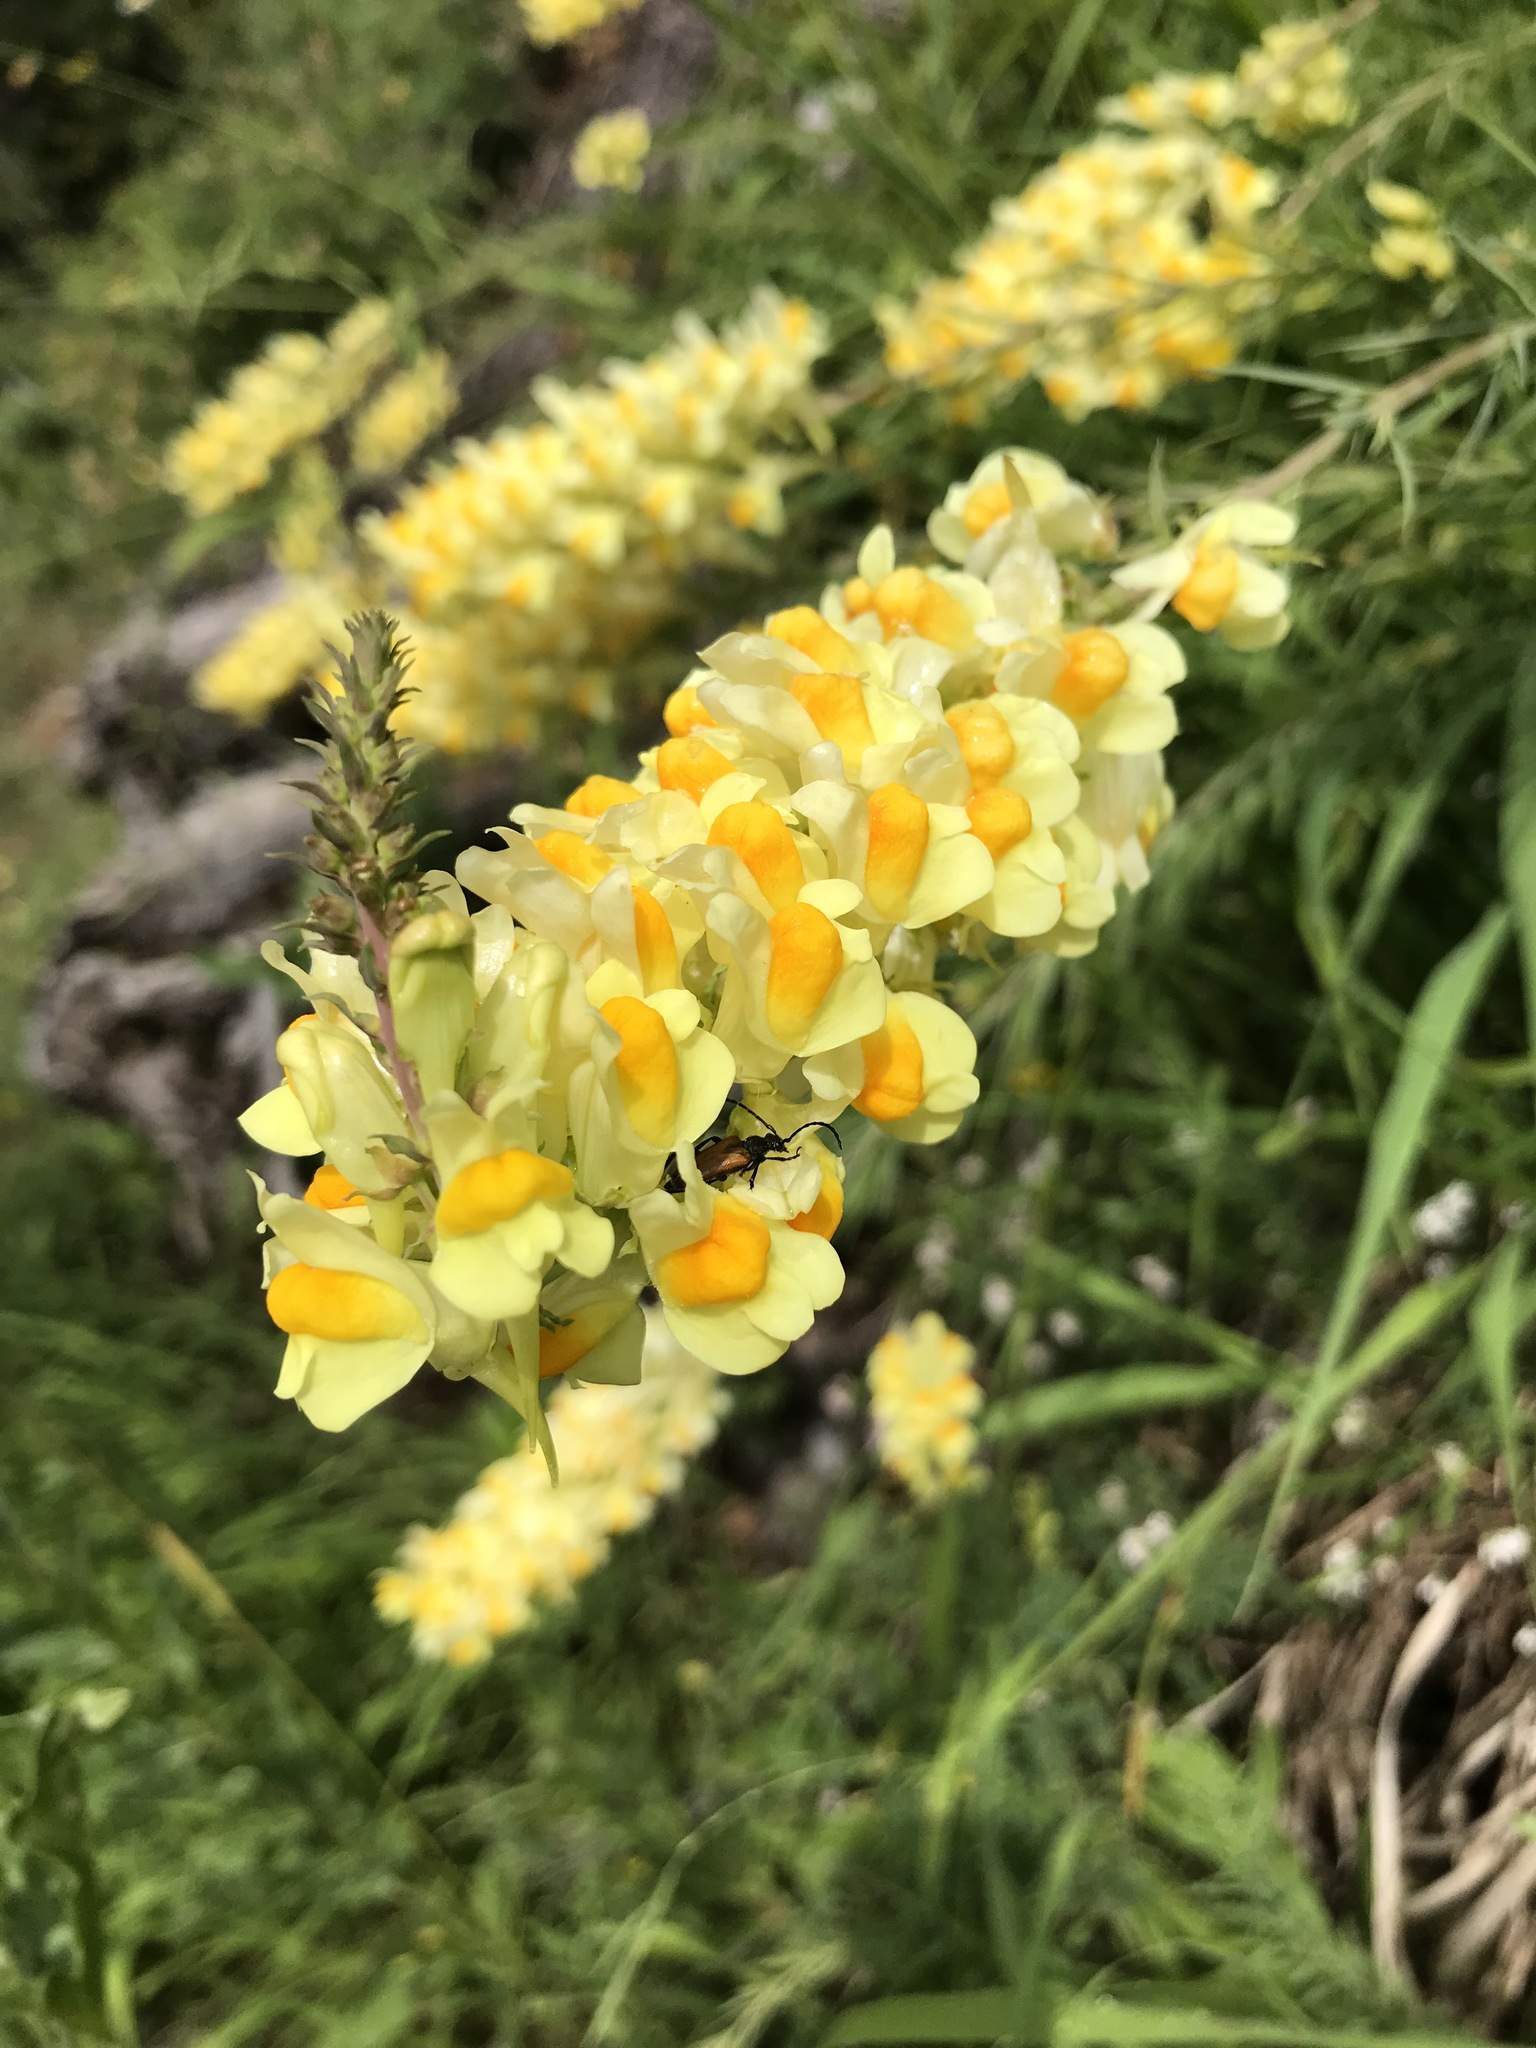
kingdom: Plantae
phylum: Tracheophyta
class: Magnoliopsida
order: Lamiales
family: Plantaginaceae
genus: Linaria
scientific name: Linaria vulgaris
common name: Butter and eggs
